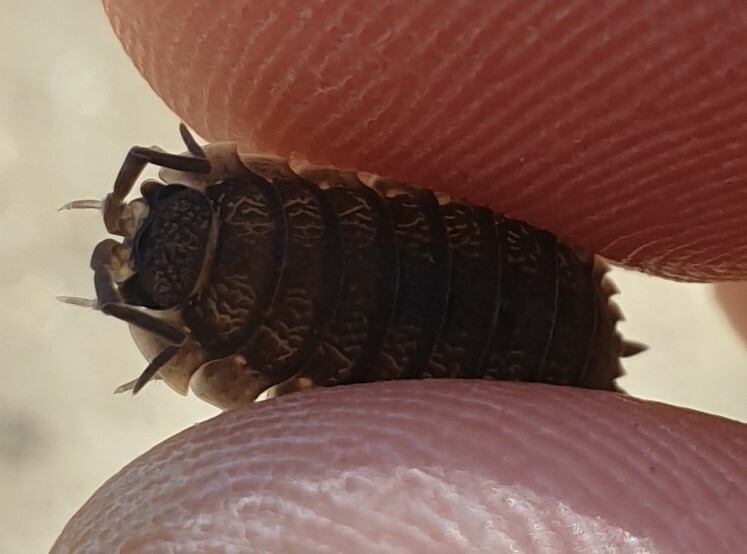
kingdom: Animalia
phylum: Arthropoda
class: Malacostraca
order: Isopoda
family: Porcellionidae
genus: Porcellio
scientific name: Porcellio scaber
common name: Common rough woodlouse
